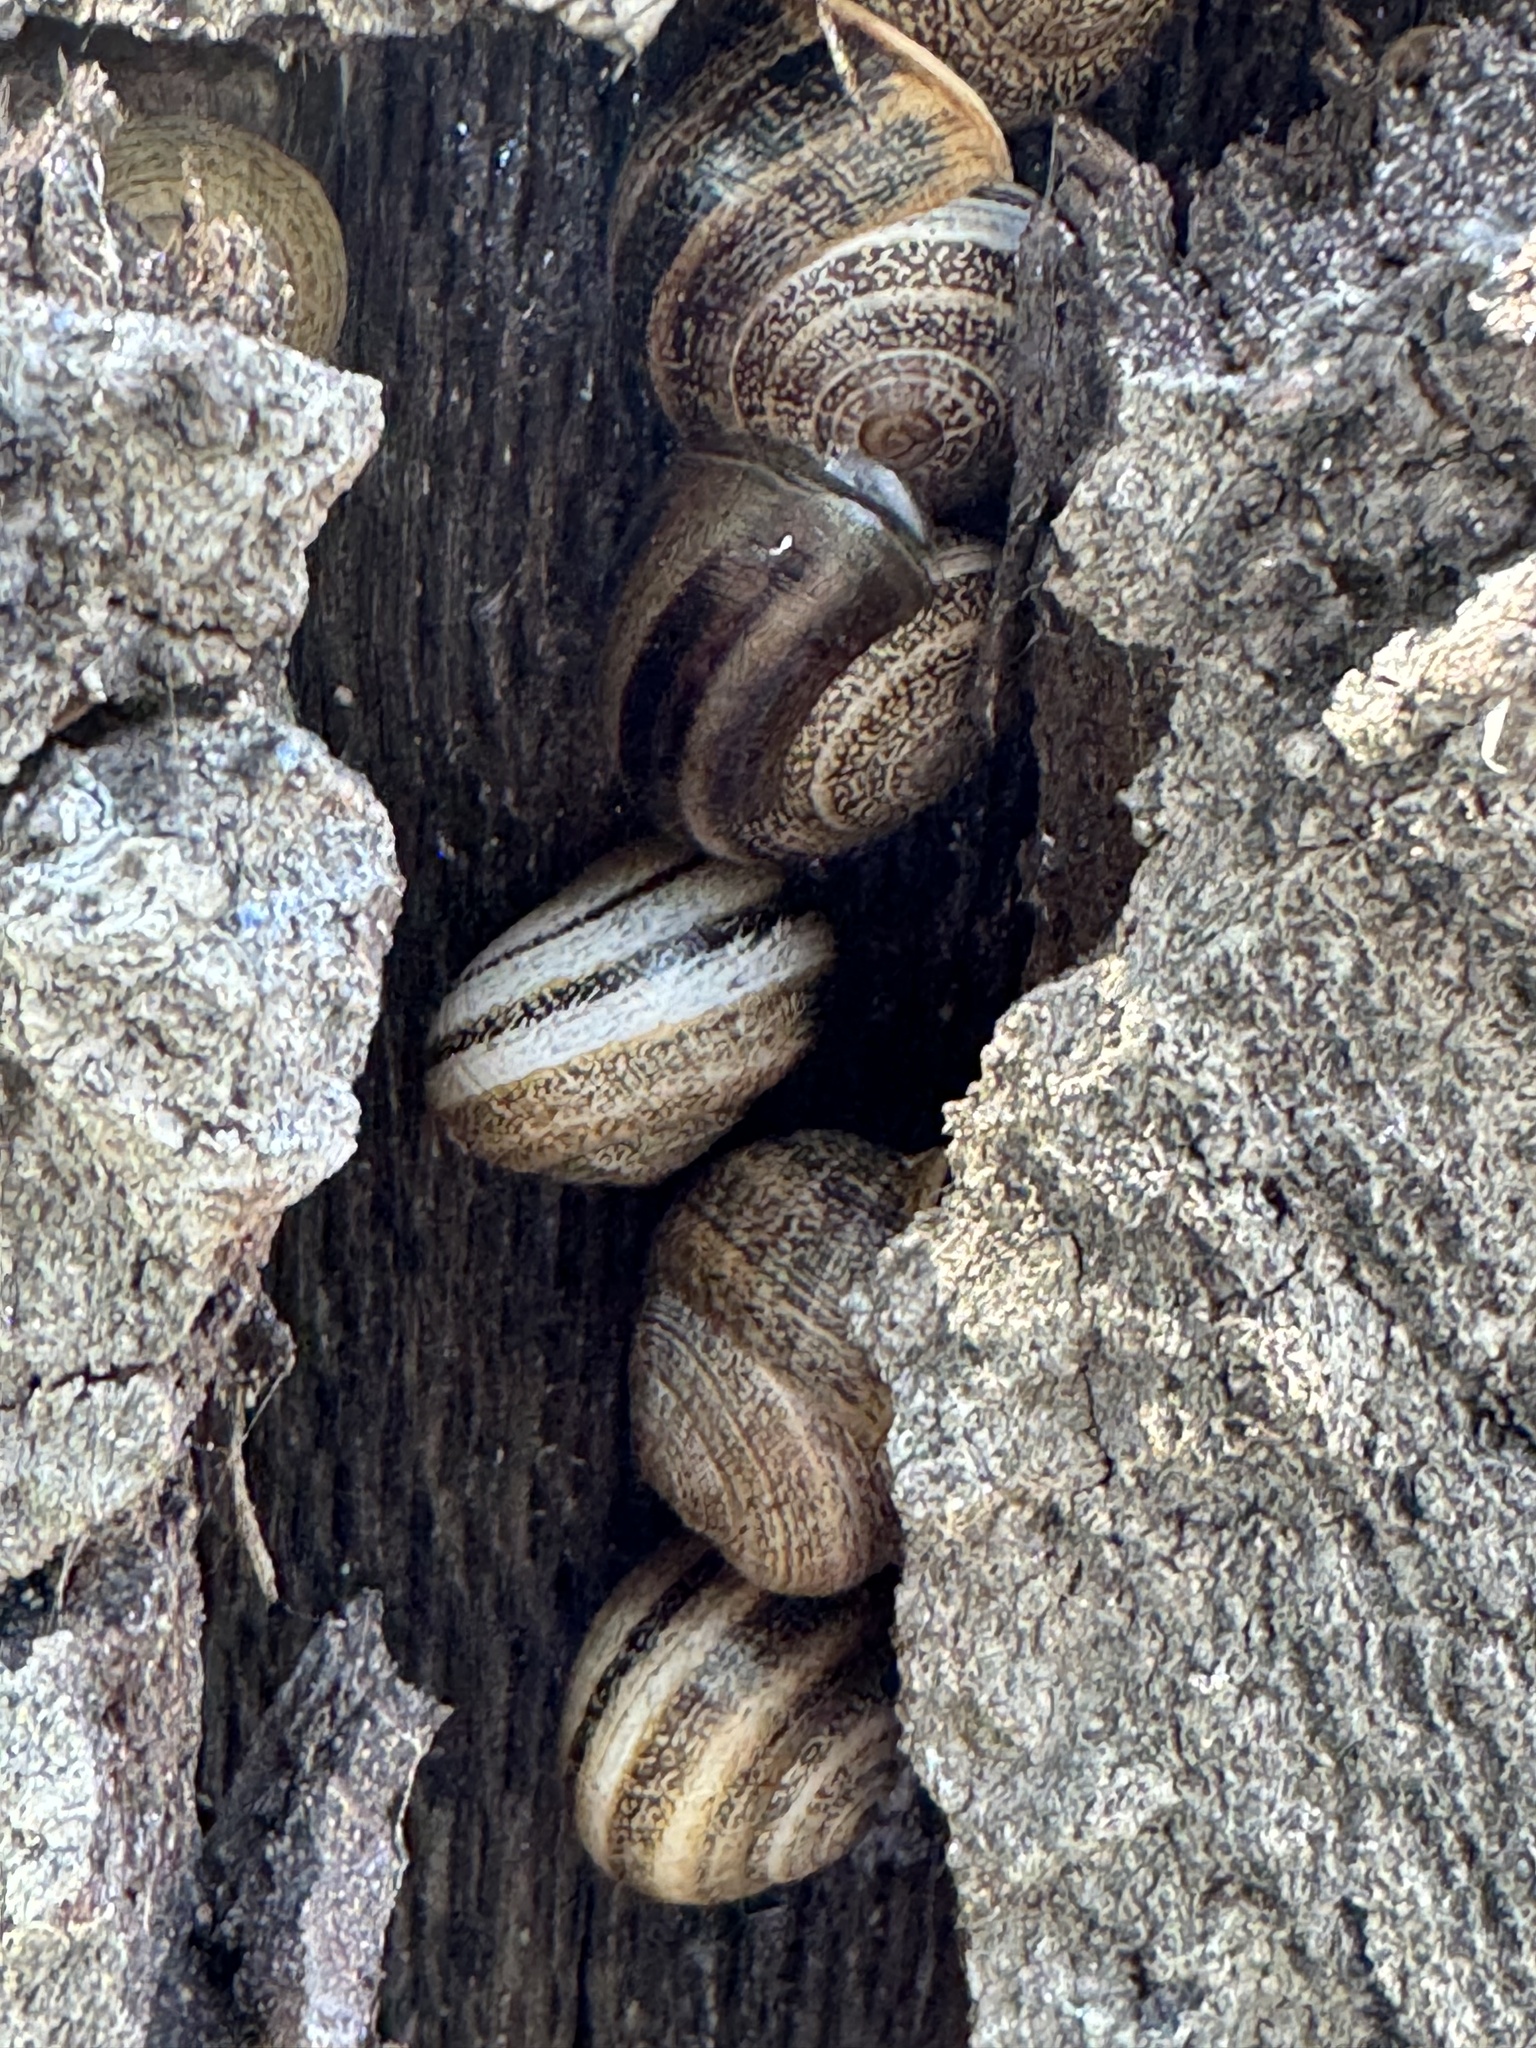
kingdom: Animalia
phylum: Mollusca
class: Gastropoda
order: Stylommatophora
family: Helicidae
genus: Otala
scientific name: Otala lactea
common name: Milk snail
